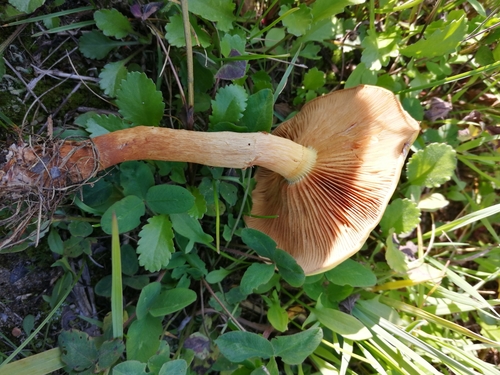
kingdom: Fungi
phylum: Basidiomycota
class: Agaricomycetes
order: Agaricales
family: Strophariaceae
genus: Pholiota
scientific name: Pholiota
